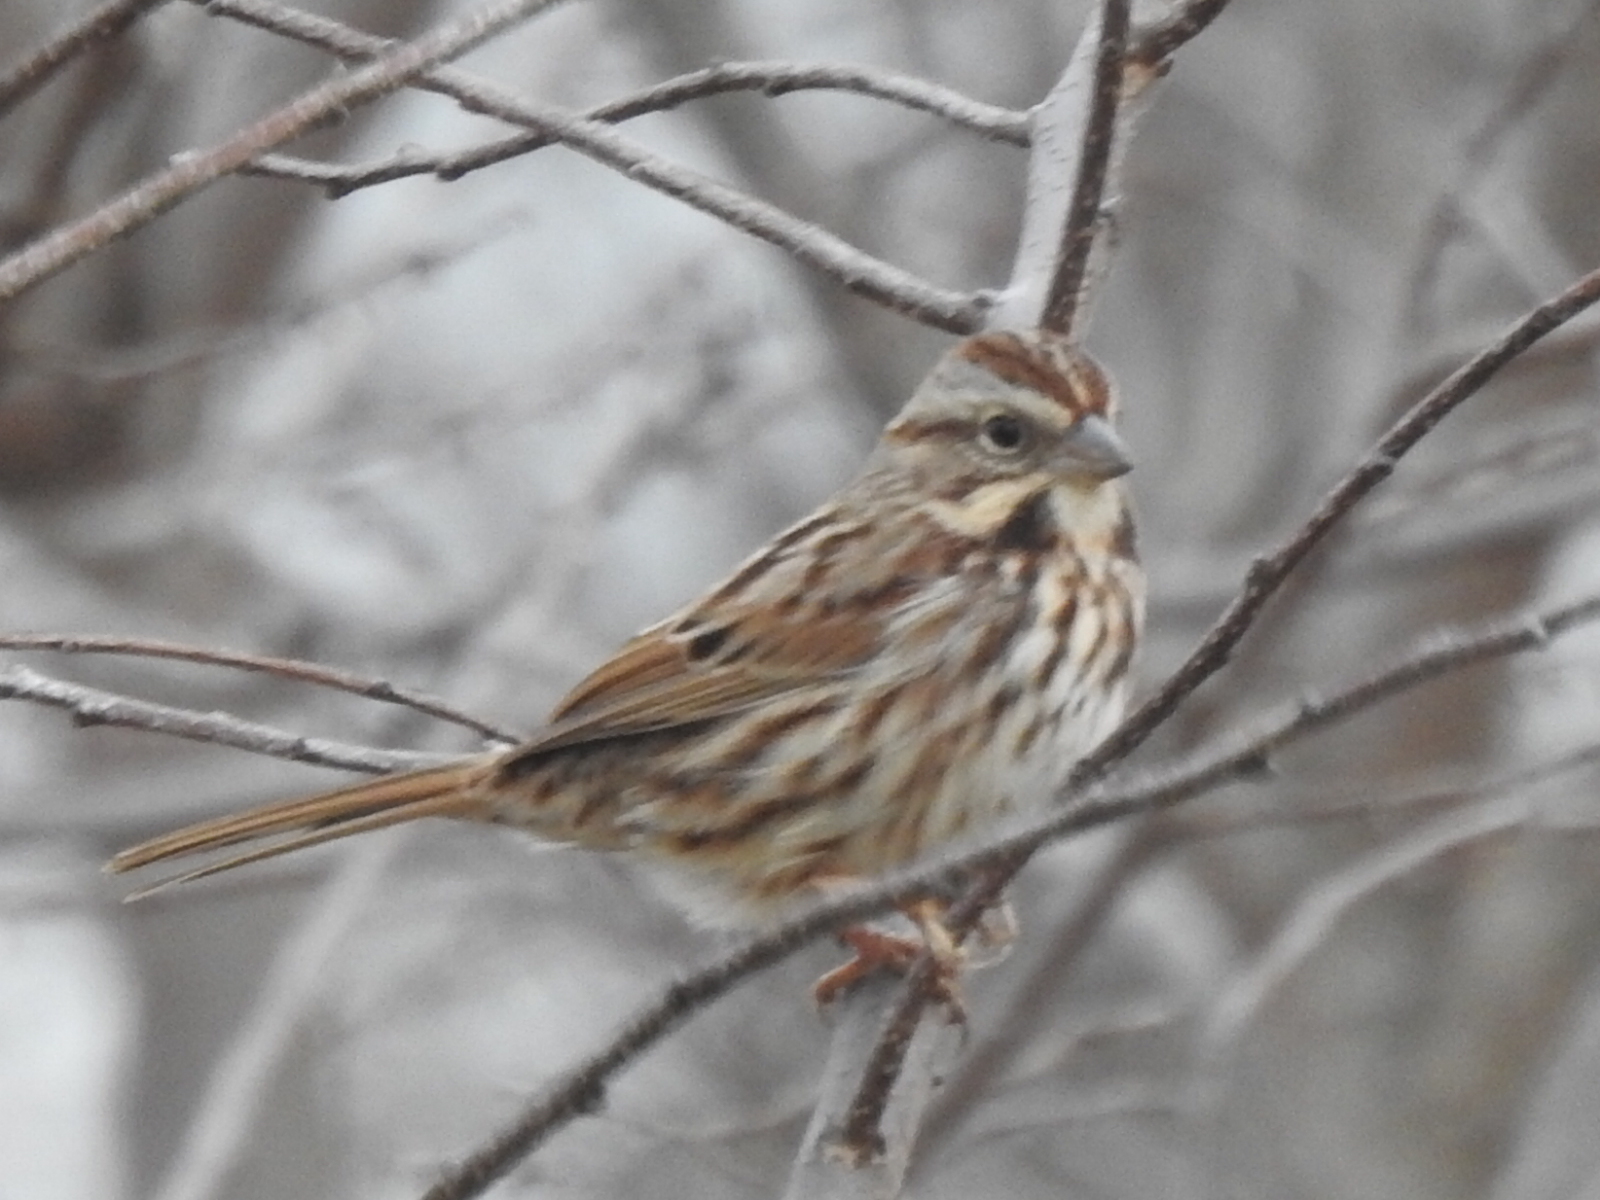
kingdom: Animalia
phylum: Chordata
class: Aves
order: Passeriformes
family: Passerellidae
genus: Melospiza
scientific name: Melospiza melodia
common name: Song sparrow
